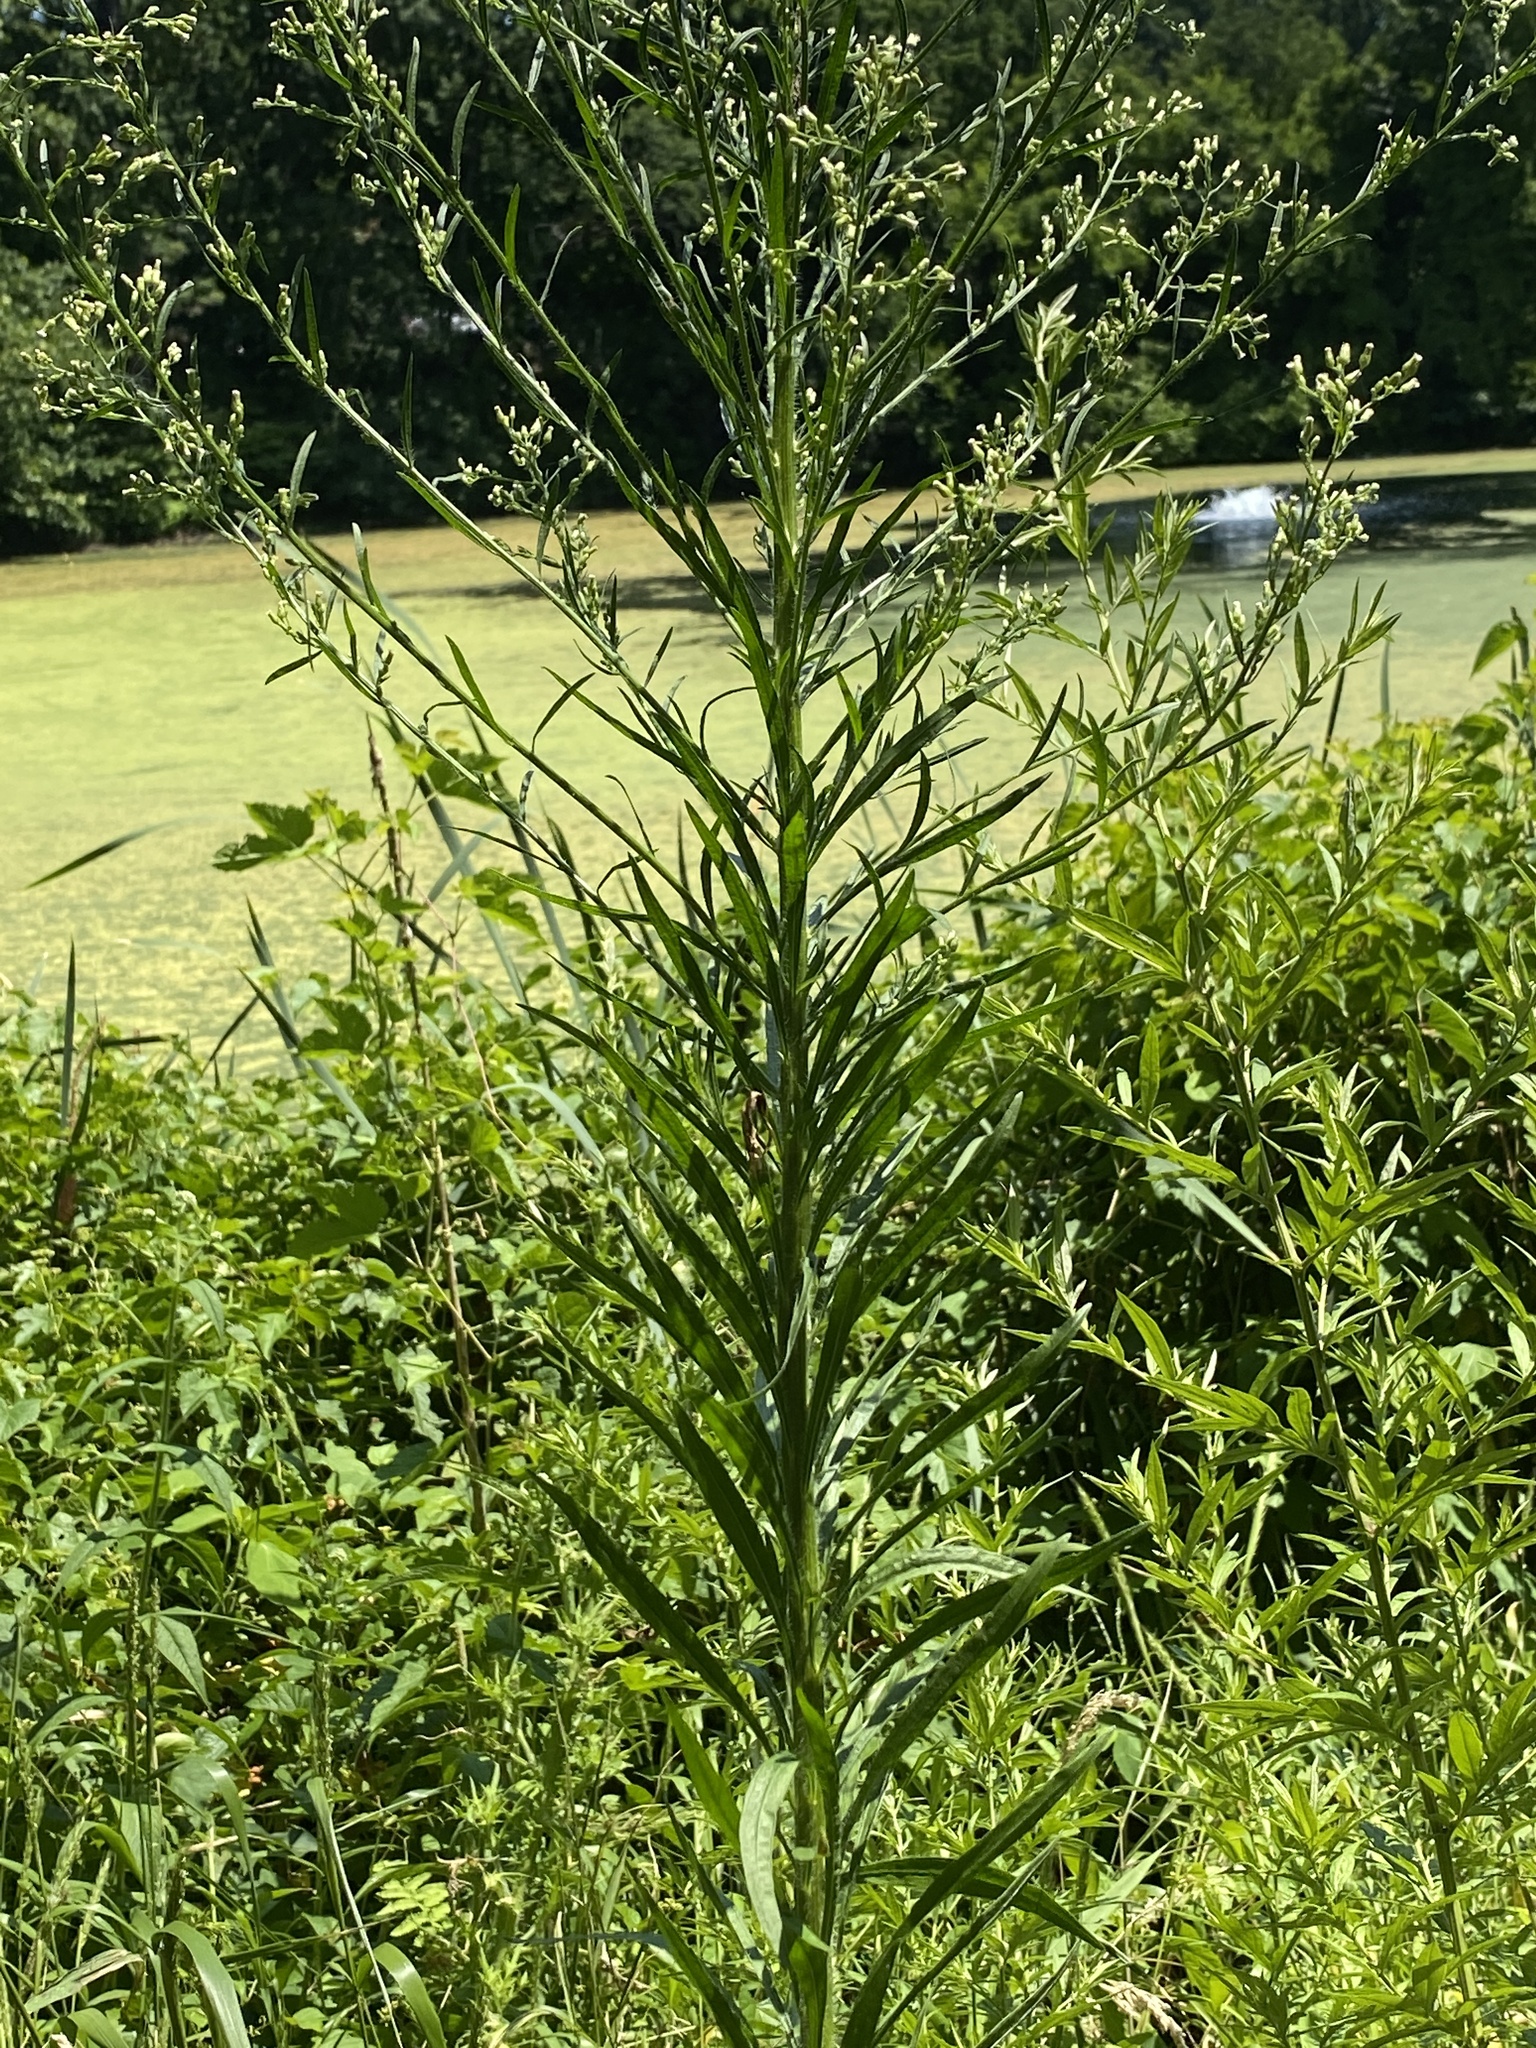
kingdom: Plantae
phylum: Tracheophyta
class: Magnoliopsida
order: Asterales
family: Asteraceae
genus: Erigeron
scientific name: Erigeron canadensis
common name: Canadian fleabane
